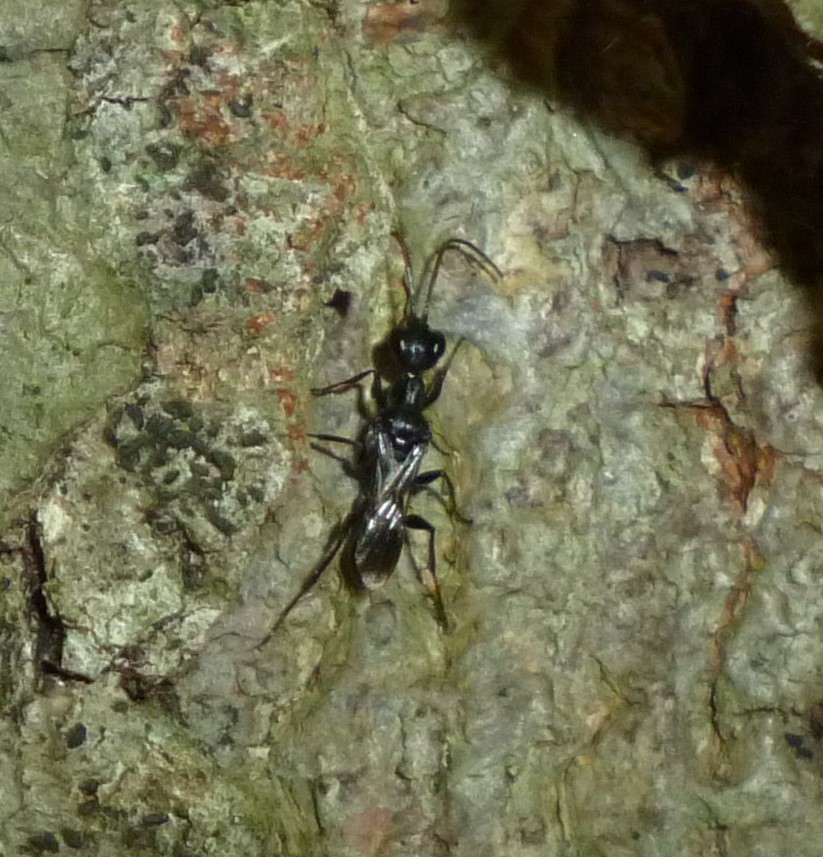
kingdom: Animalia
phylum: Arthropoda
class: Insecta
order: Hymenoptera
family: Ampulicidae
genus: Ampulex
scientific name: Ampulex canaliculata
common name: Cockroach wasp
